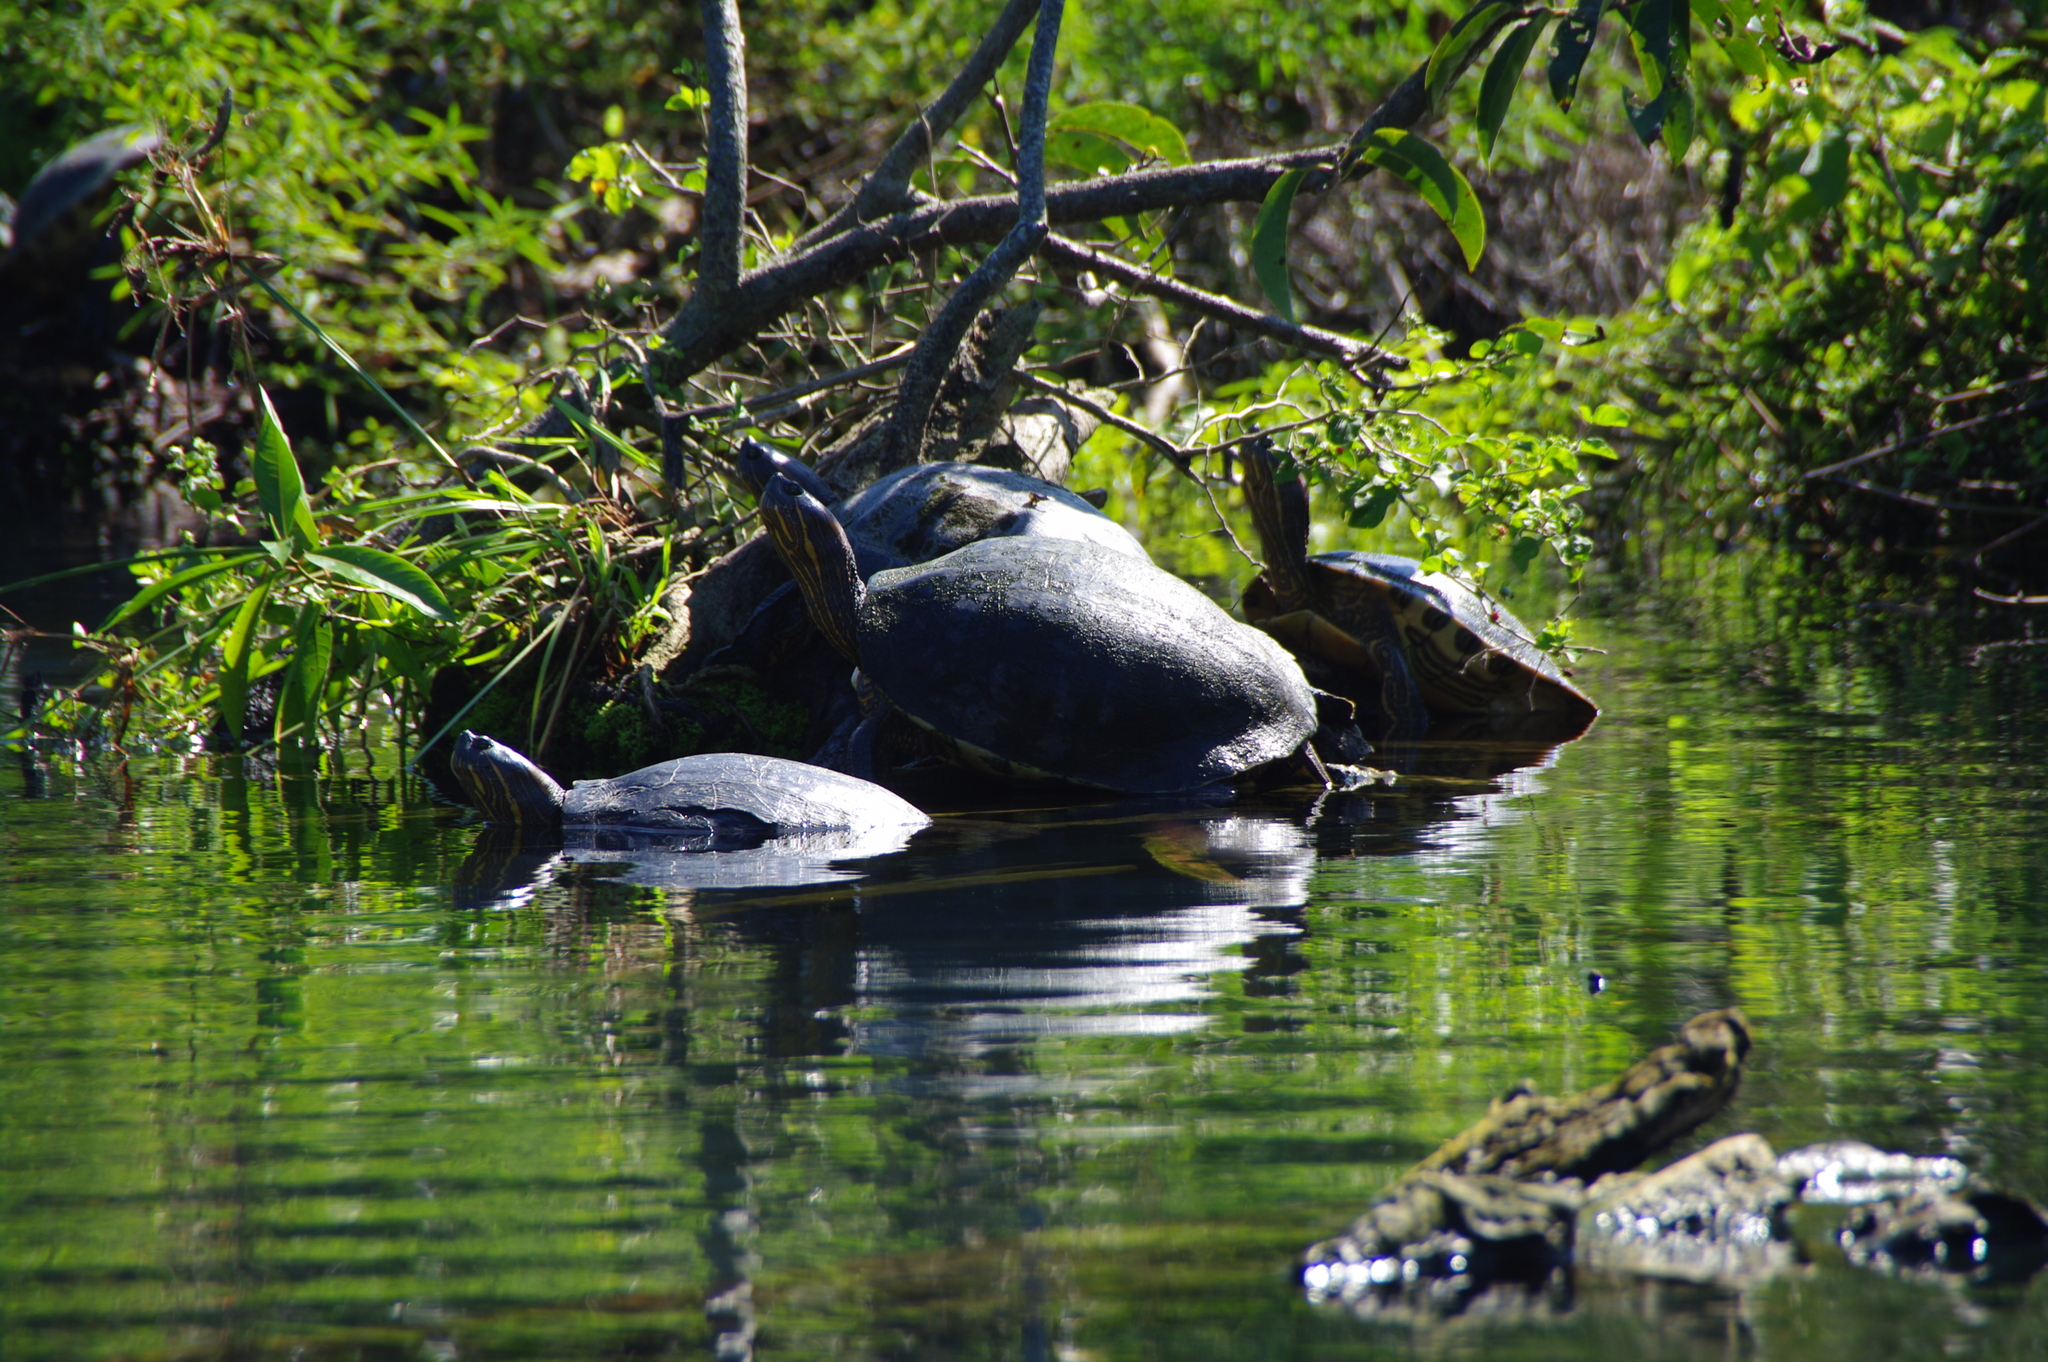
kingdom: Animalia
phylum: Chordata
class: Testudines
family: Emydidae
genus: Trachemys
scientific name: Trachemys ornata
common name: Ornate slider
